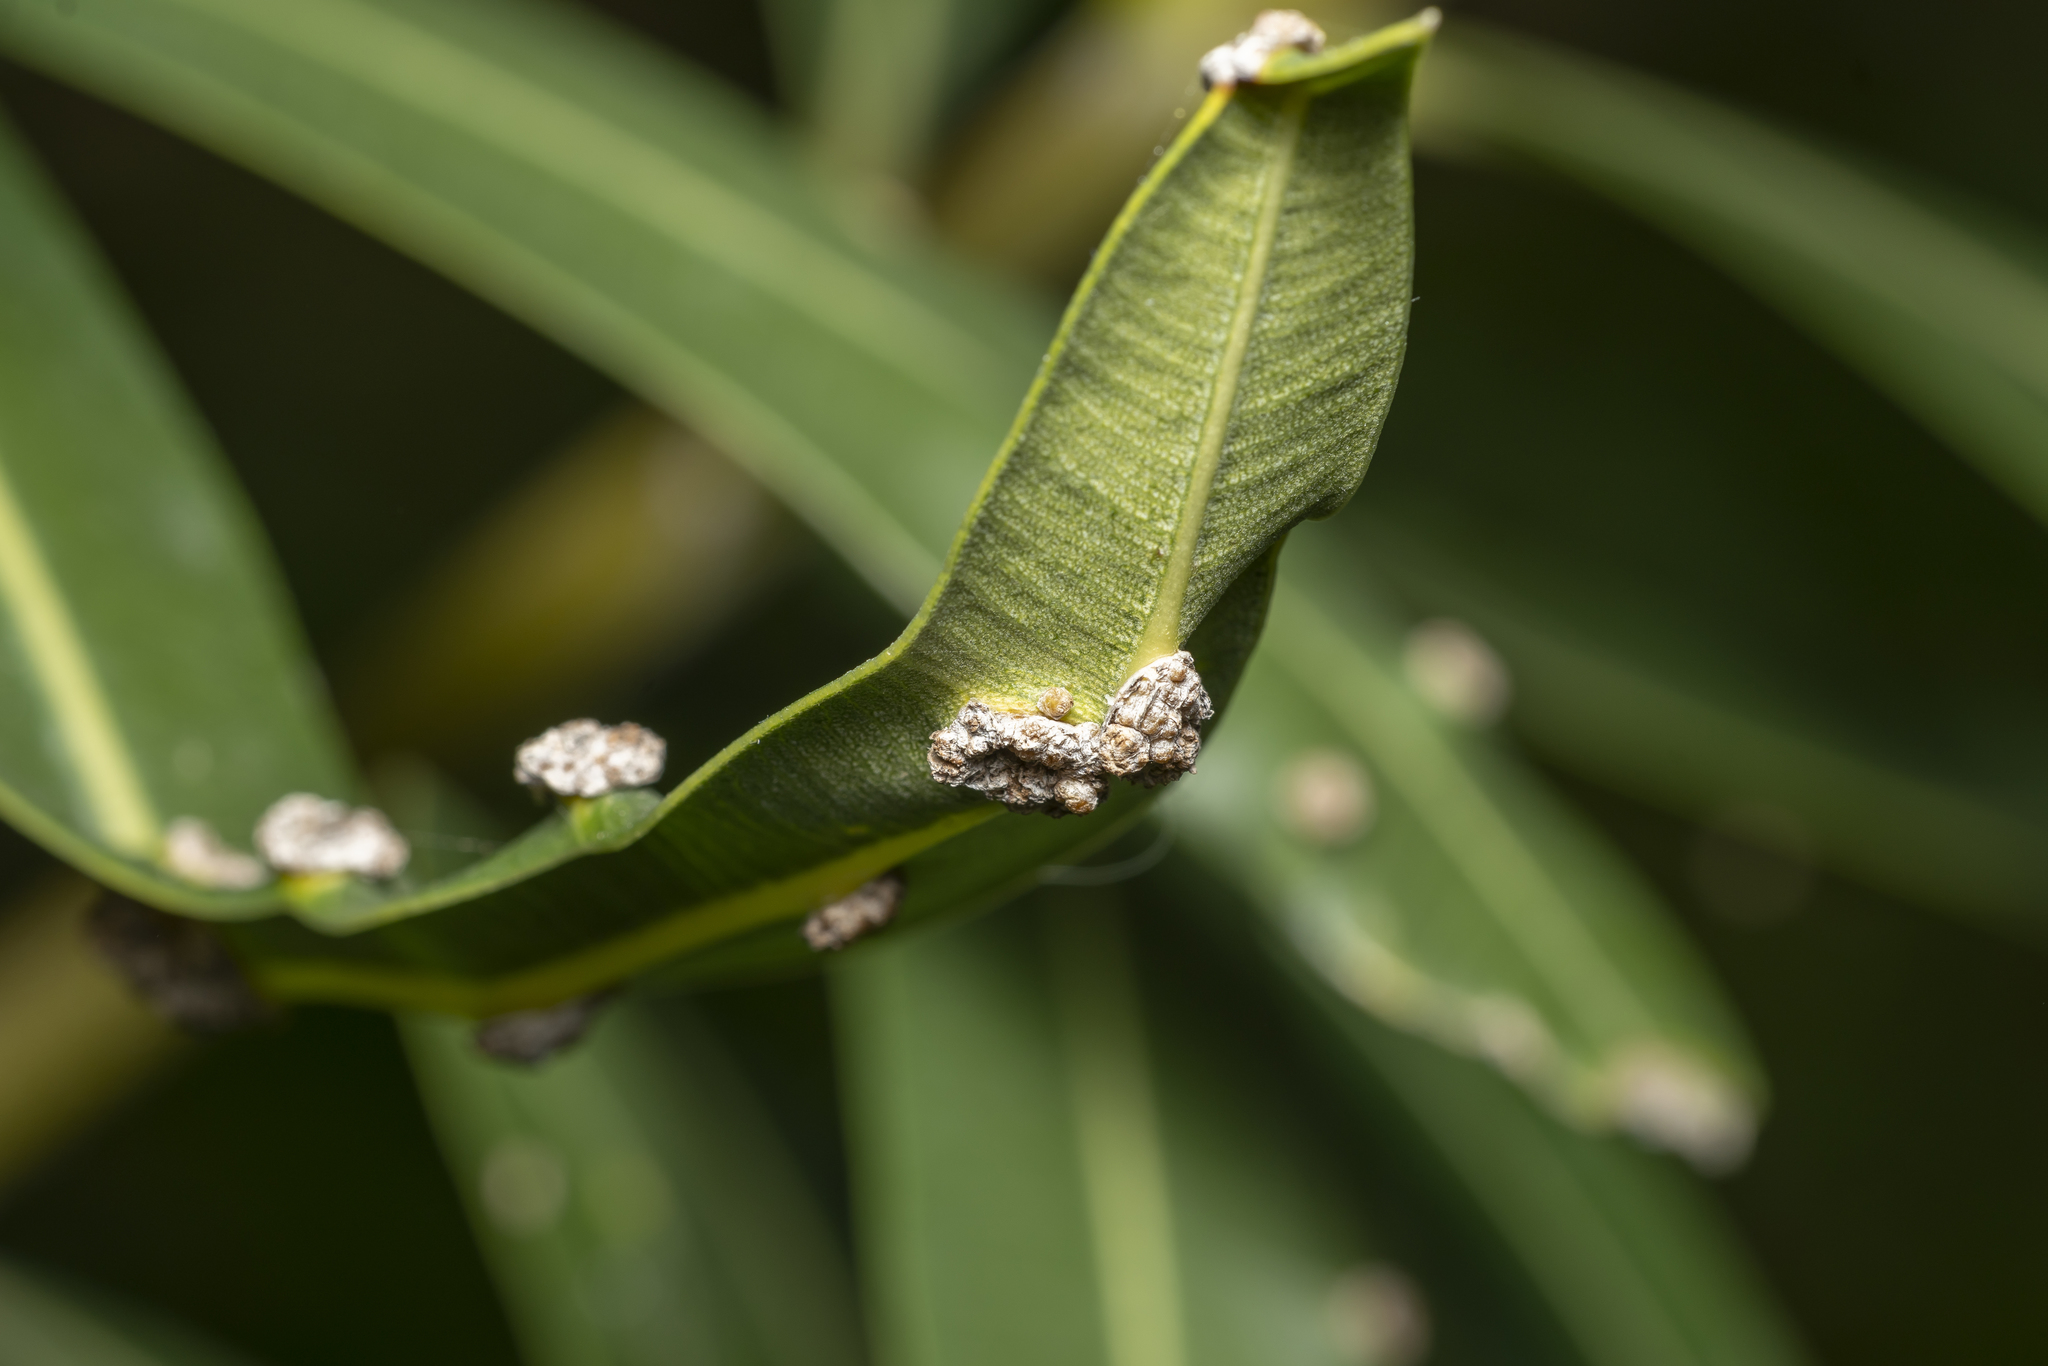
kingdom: Bacteria
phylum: Proteobacteria
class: Gammaproteobacteria
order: Pseudomonadales
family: Pseudomonadaceae
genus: Pseudomonas
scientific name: Pseudomonas
